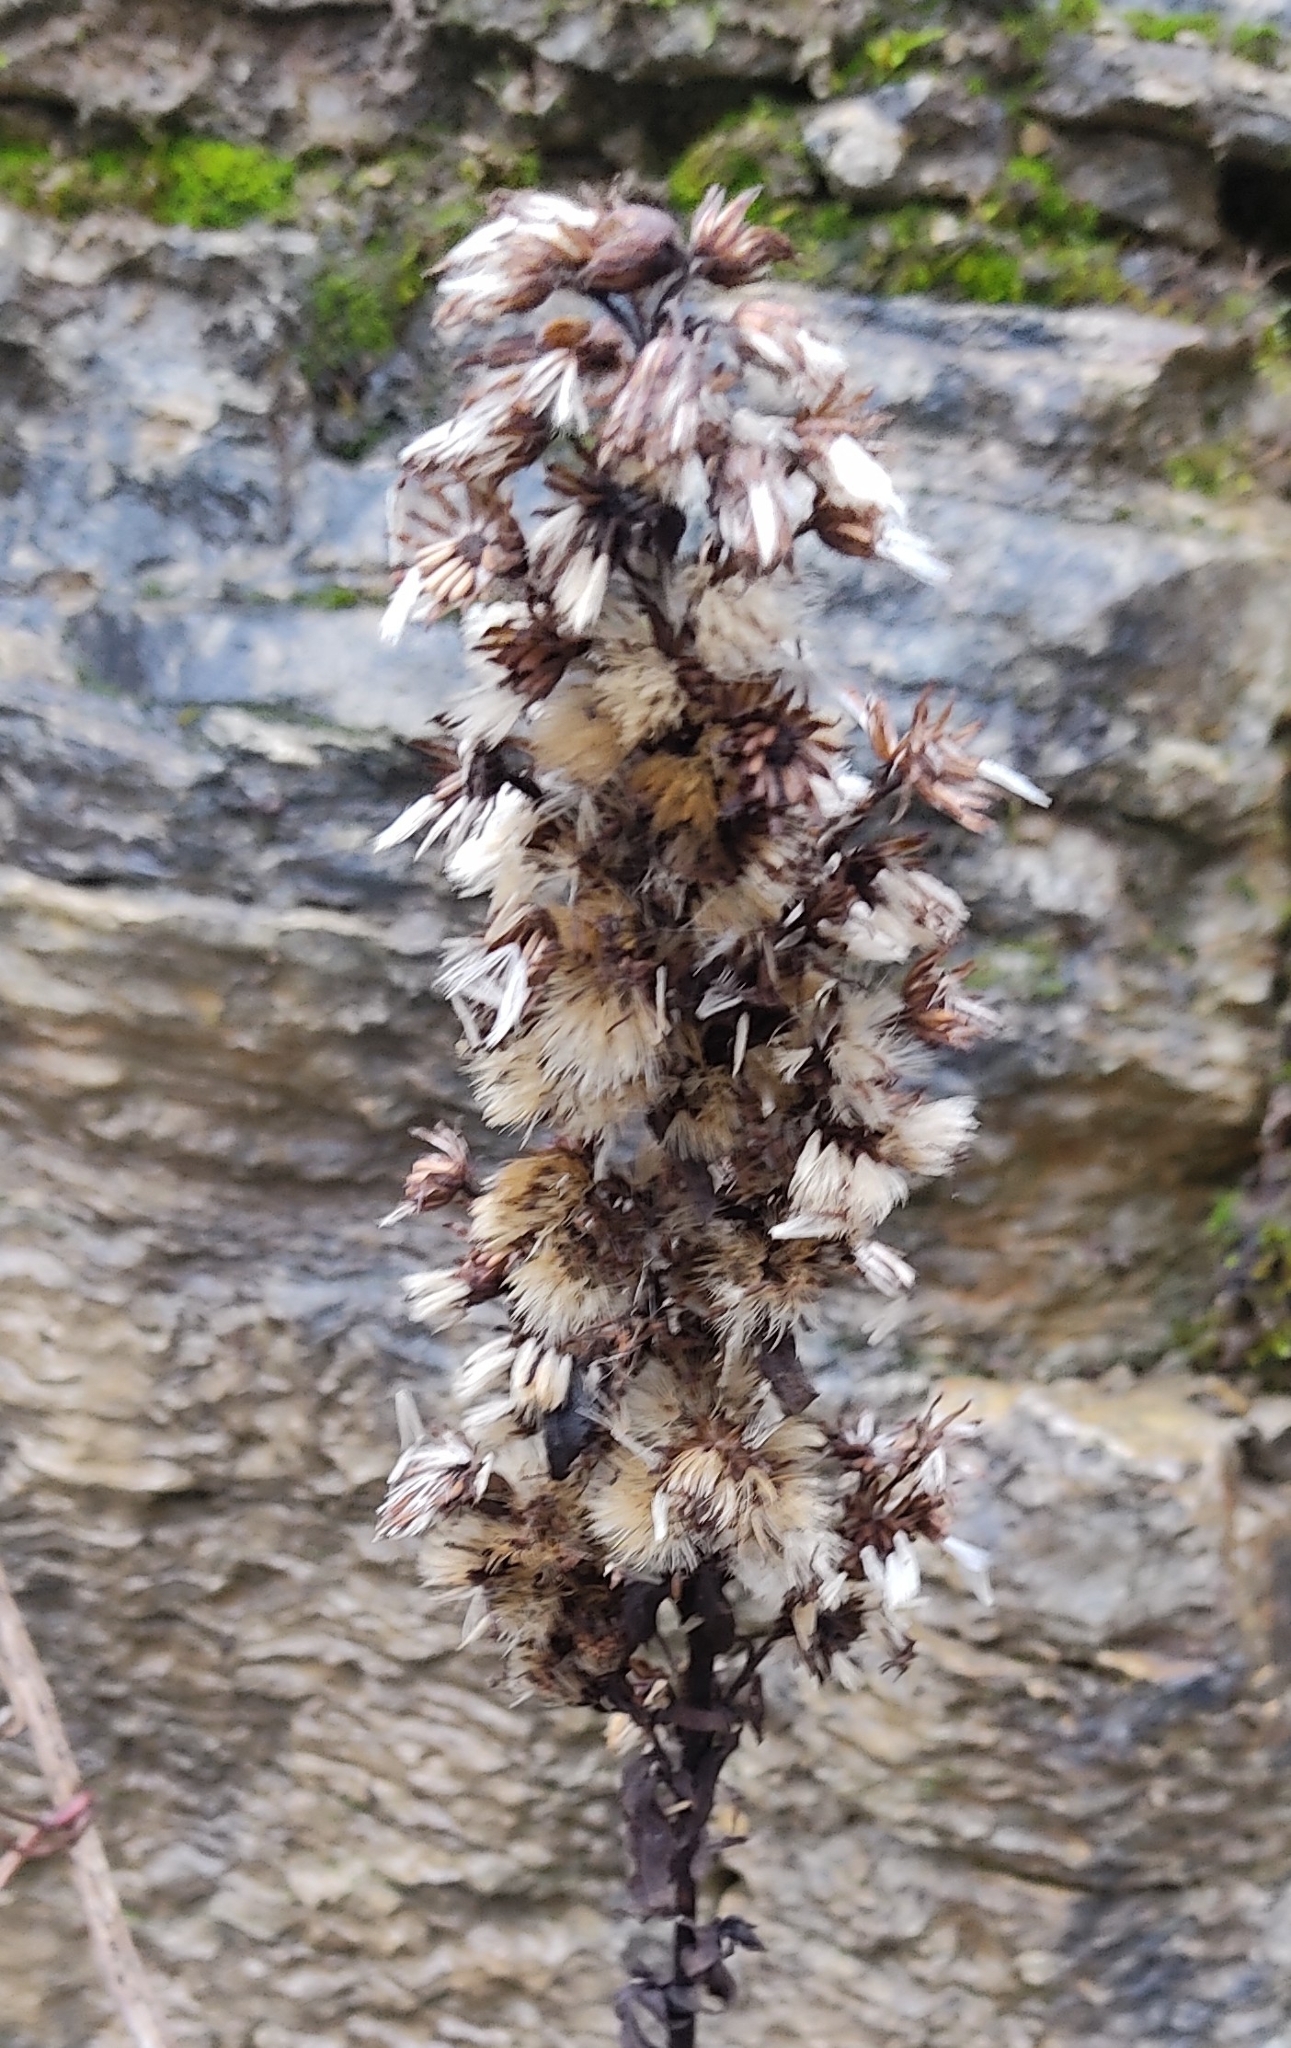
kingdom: Plantae
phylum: Tracheophyta
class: Magnoliopsida
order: Asterales
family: Asteraceae
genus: Solidago
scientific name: Solidago virgaurea
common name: Goldenrod
